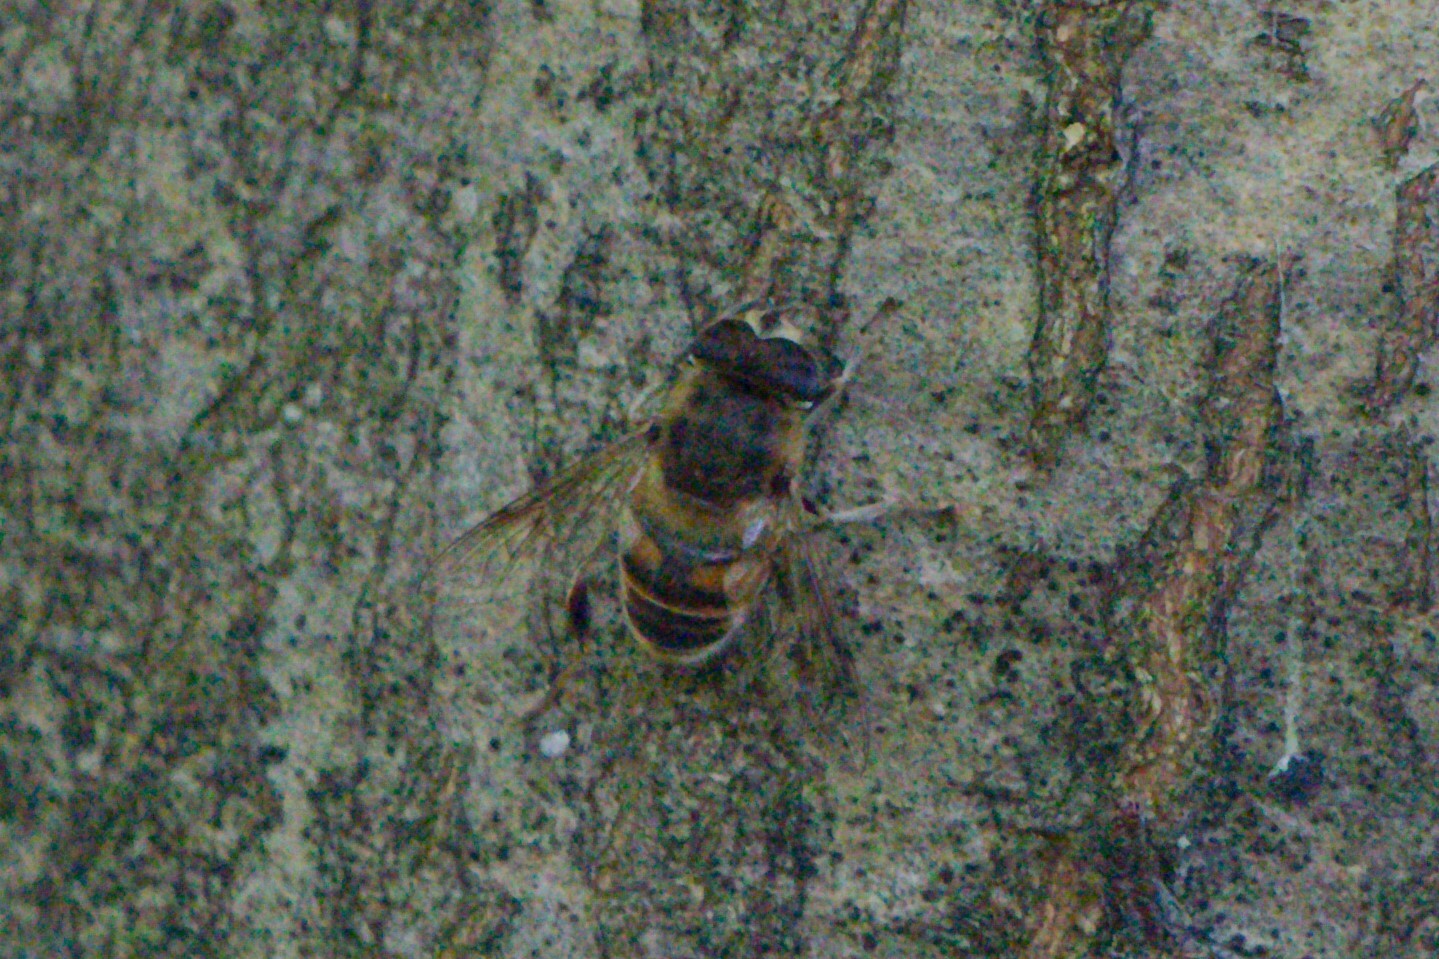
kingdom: Animalia
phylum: Arthropoda
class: Insecta
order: Diptera
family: Syrphidae
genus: Eristalis
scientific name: Eristalis tenax
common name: Drone fly
